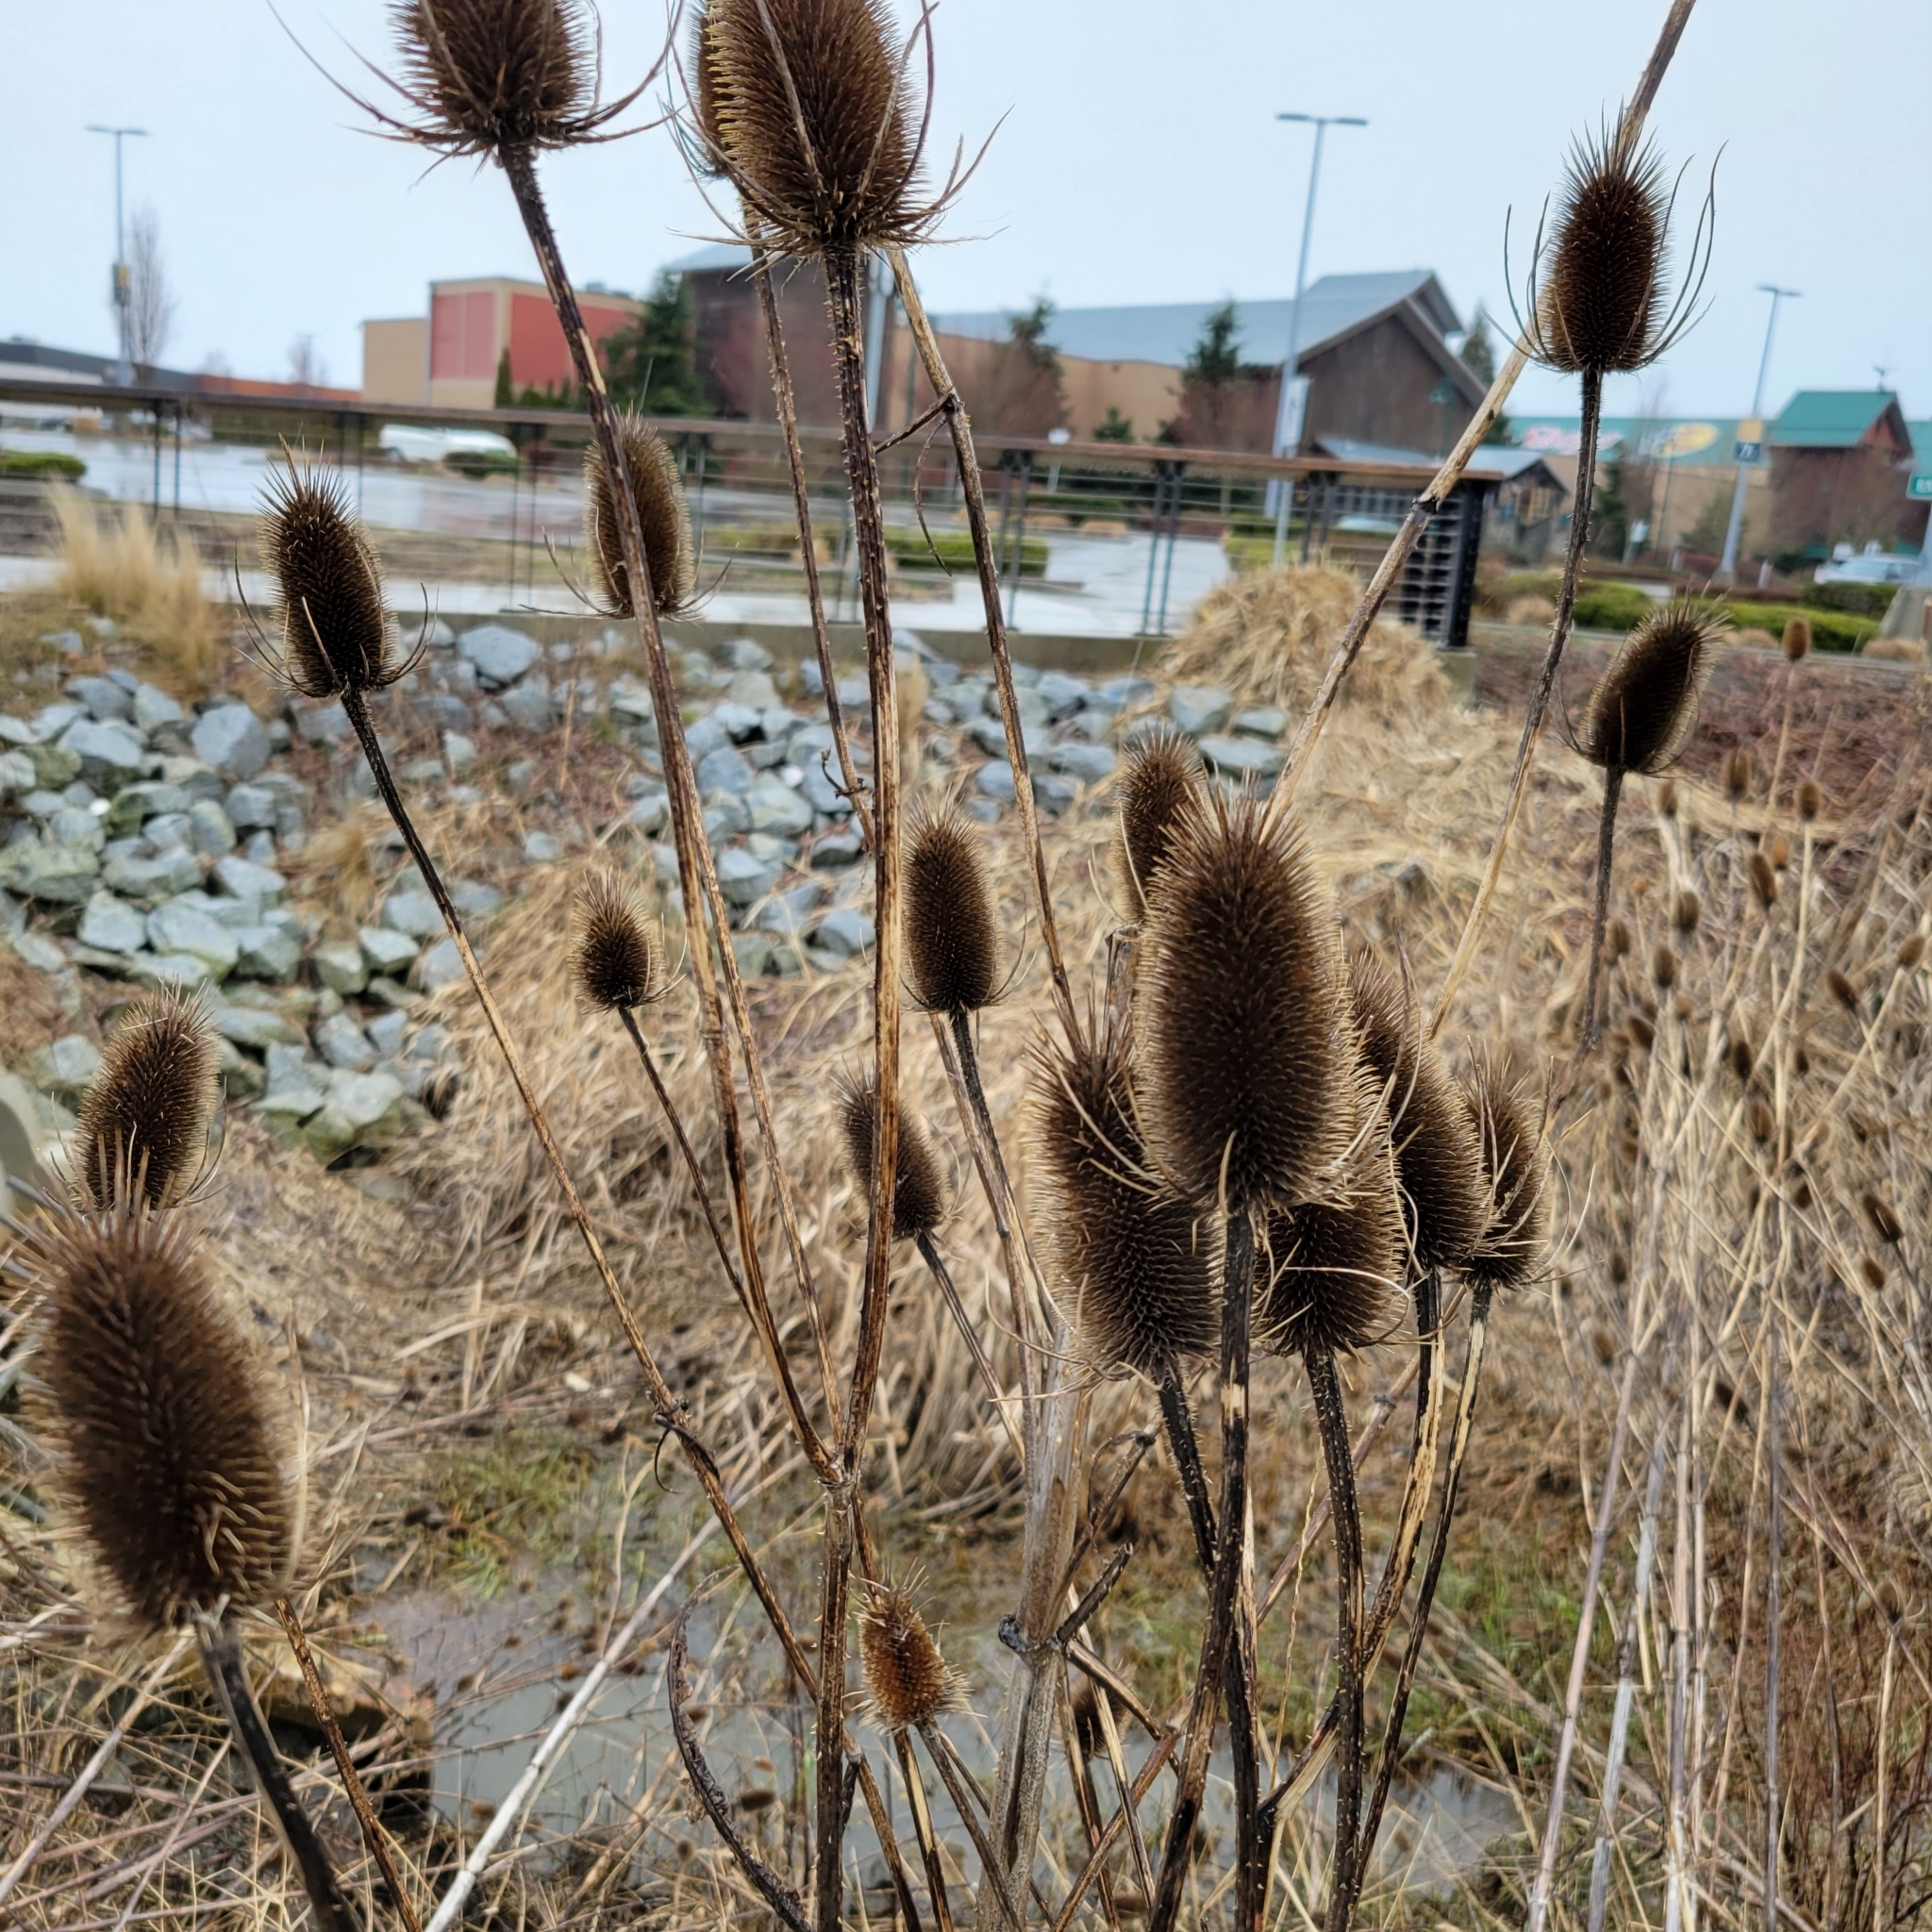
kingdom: Plantae
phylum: Tracheophyta
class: Magnoliopsida
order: Dipsacales
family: Caprifoliaceae
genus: Dipsacus
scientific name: Dipsacus fullonum
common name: Teasel
